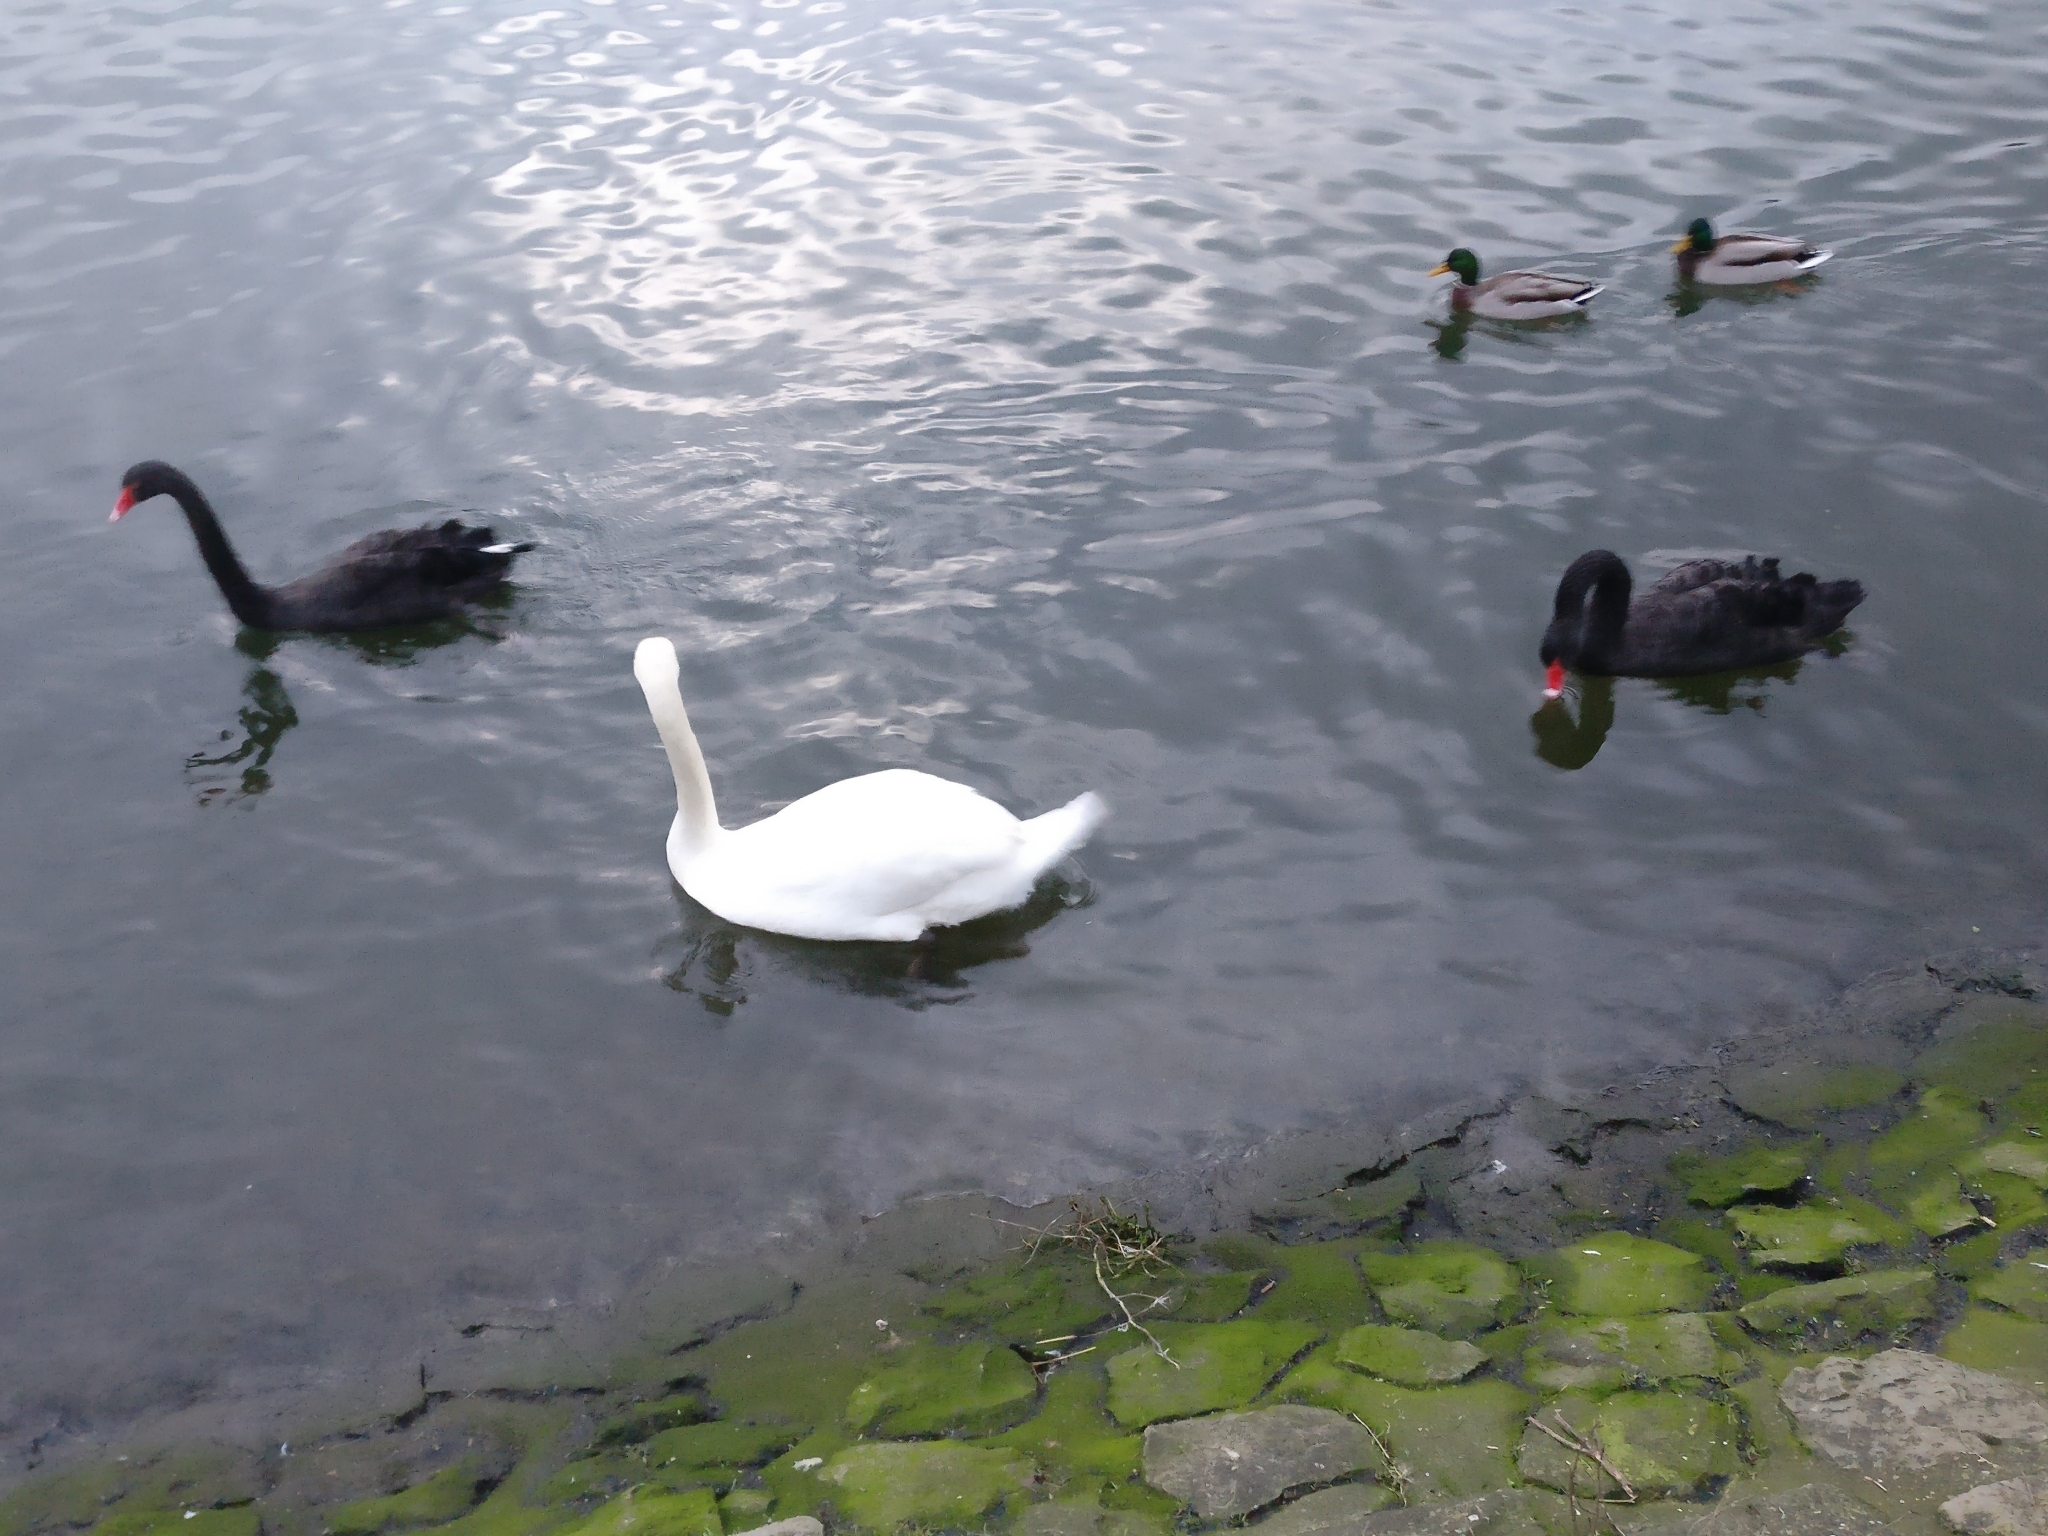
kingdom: Animalia
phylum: Chordata
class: Aves
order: Anseriformes
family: Anatidae
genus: Cygnus
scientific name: Cygnus atratus
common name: Black swan
